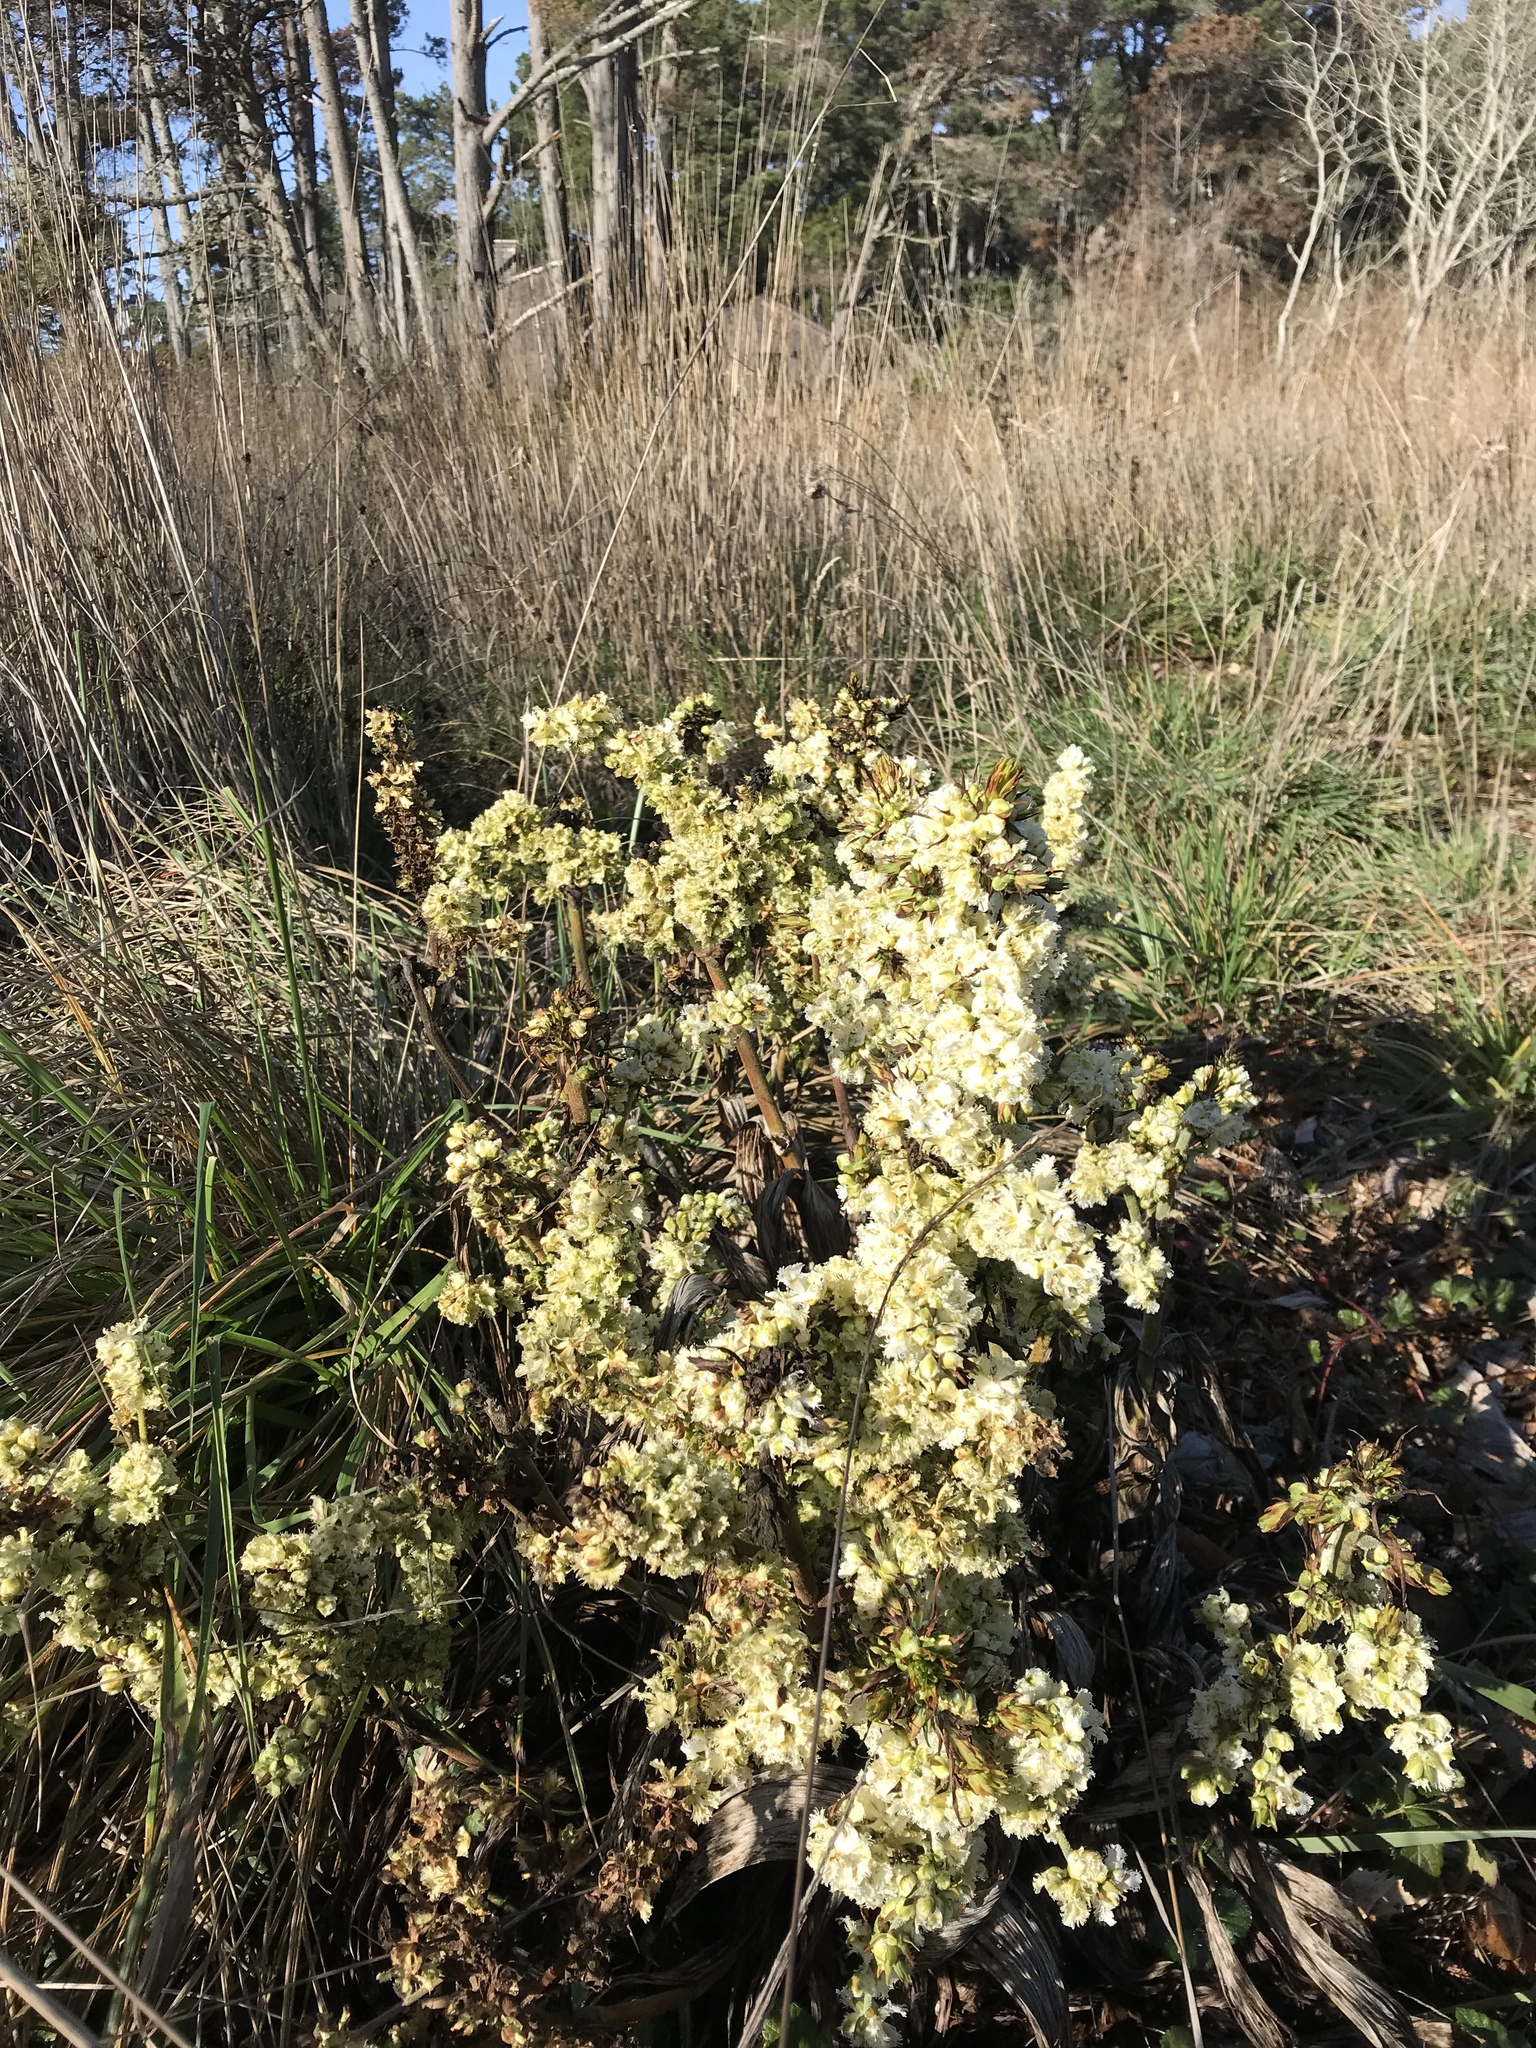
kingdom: Plantae
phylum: Tracheophyta
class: Liliopsida
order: Liliales
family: Melanthiaceae
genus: Veratrum
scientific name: Veratrum fimbriatum
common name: Fringe false hellobore
